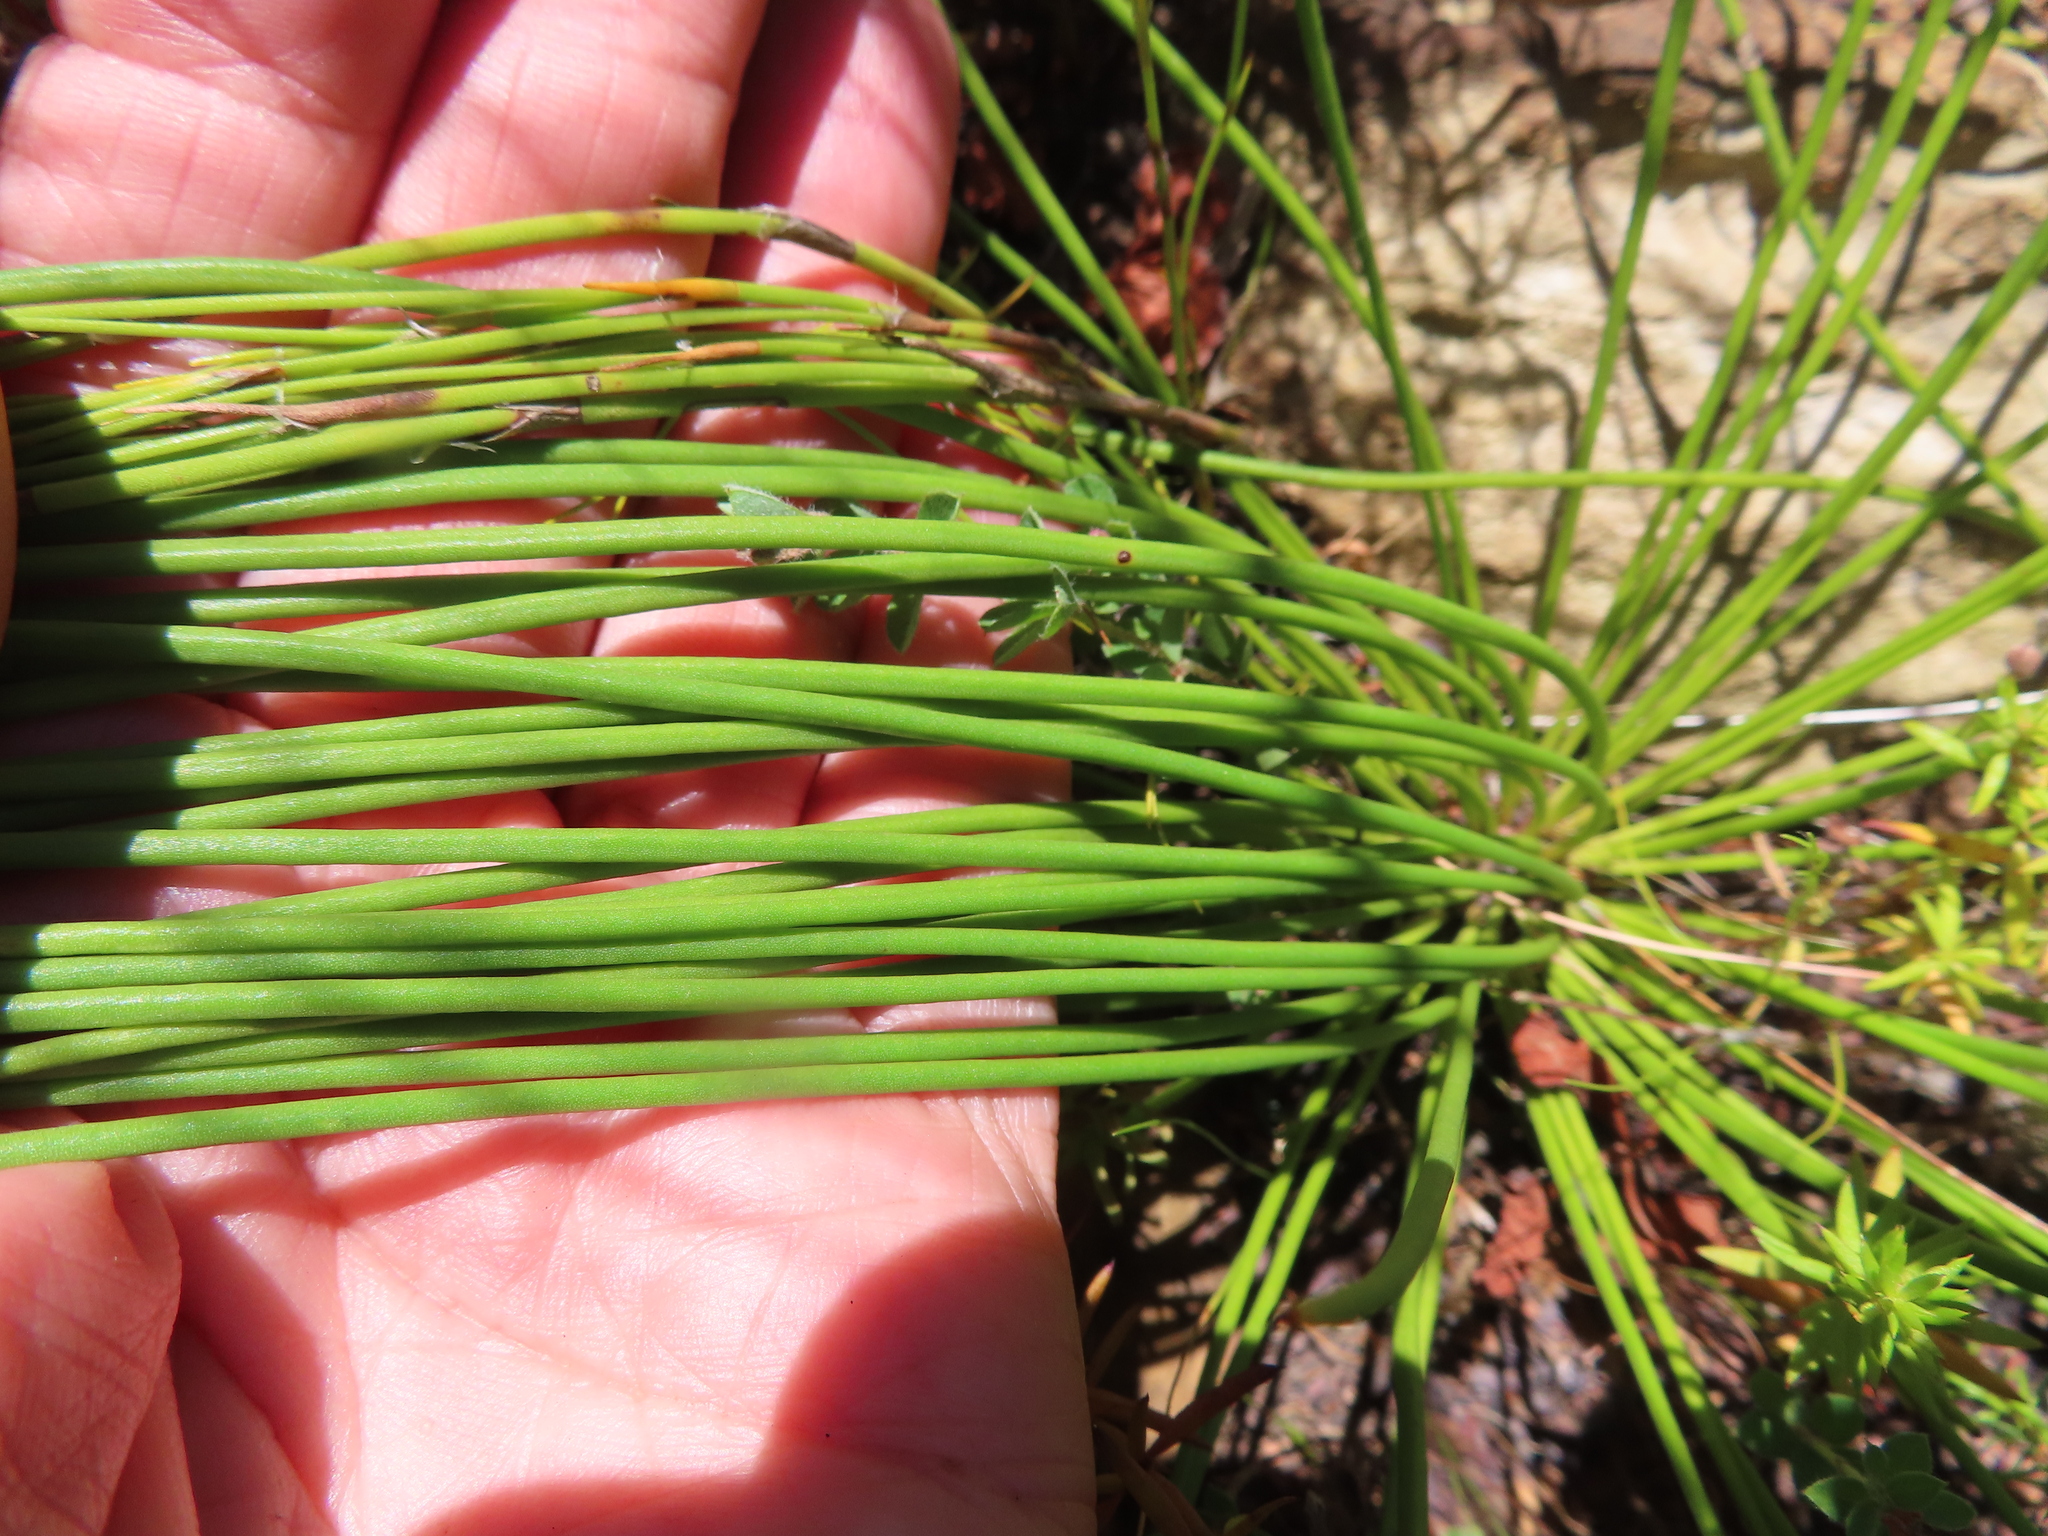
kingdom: Plantae
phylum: Tracheophyta
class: Magnoliopsida
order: Proteales
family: Proteaceae
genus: Protea
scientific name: Protea lorea
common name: Thong-leaf sugarbush
